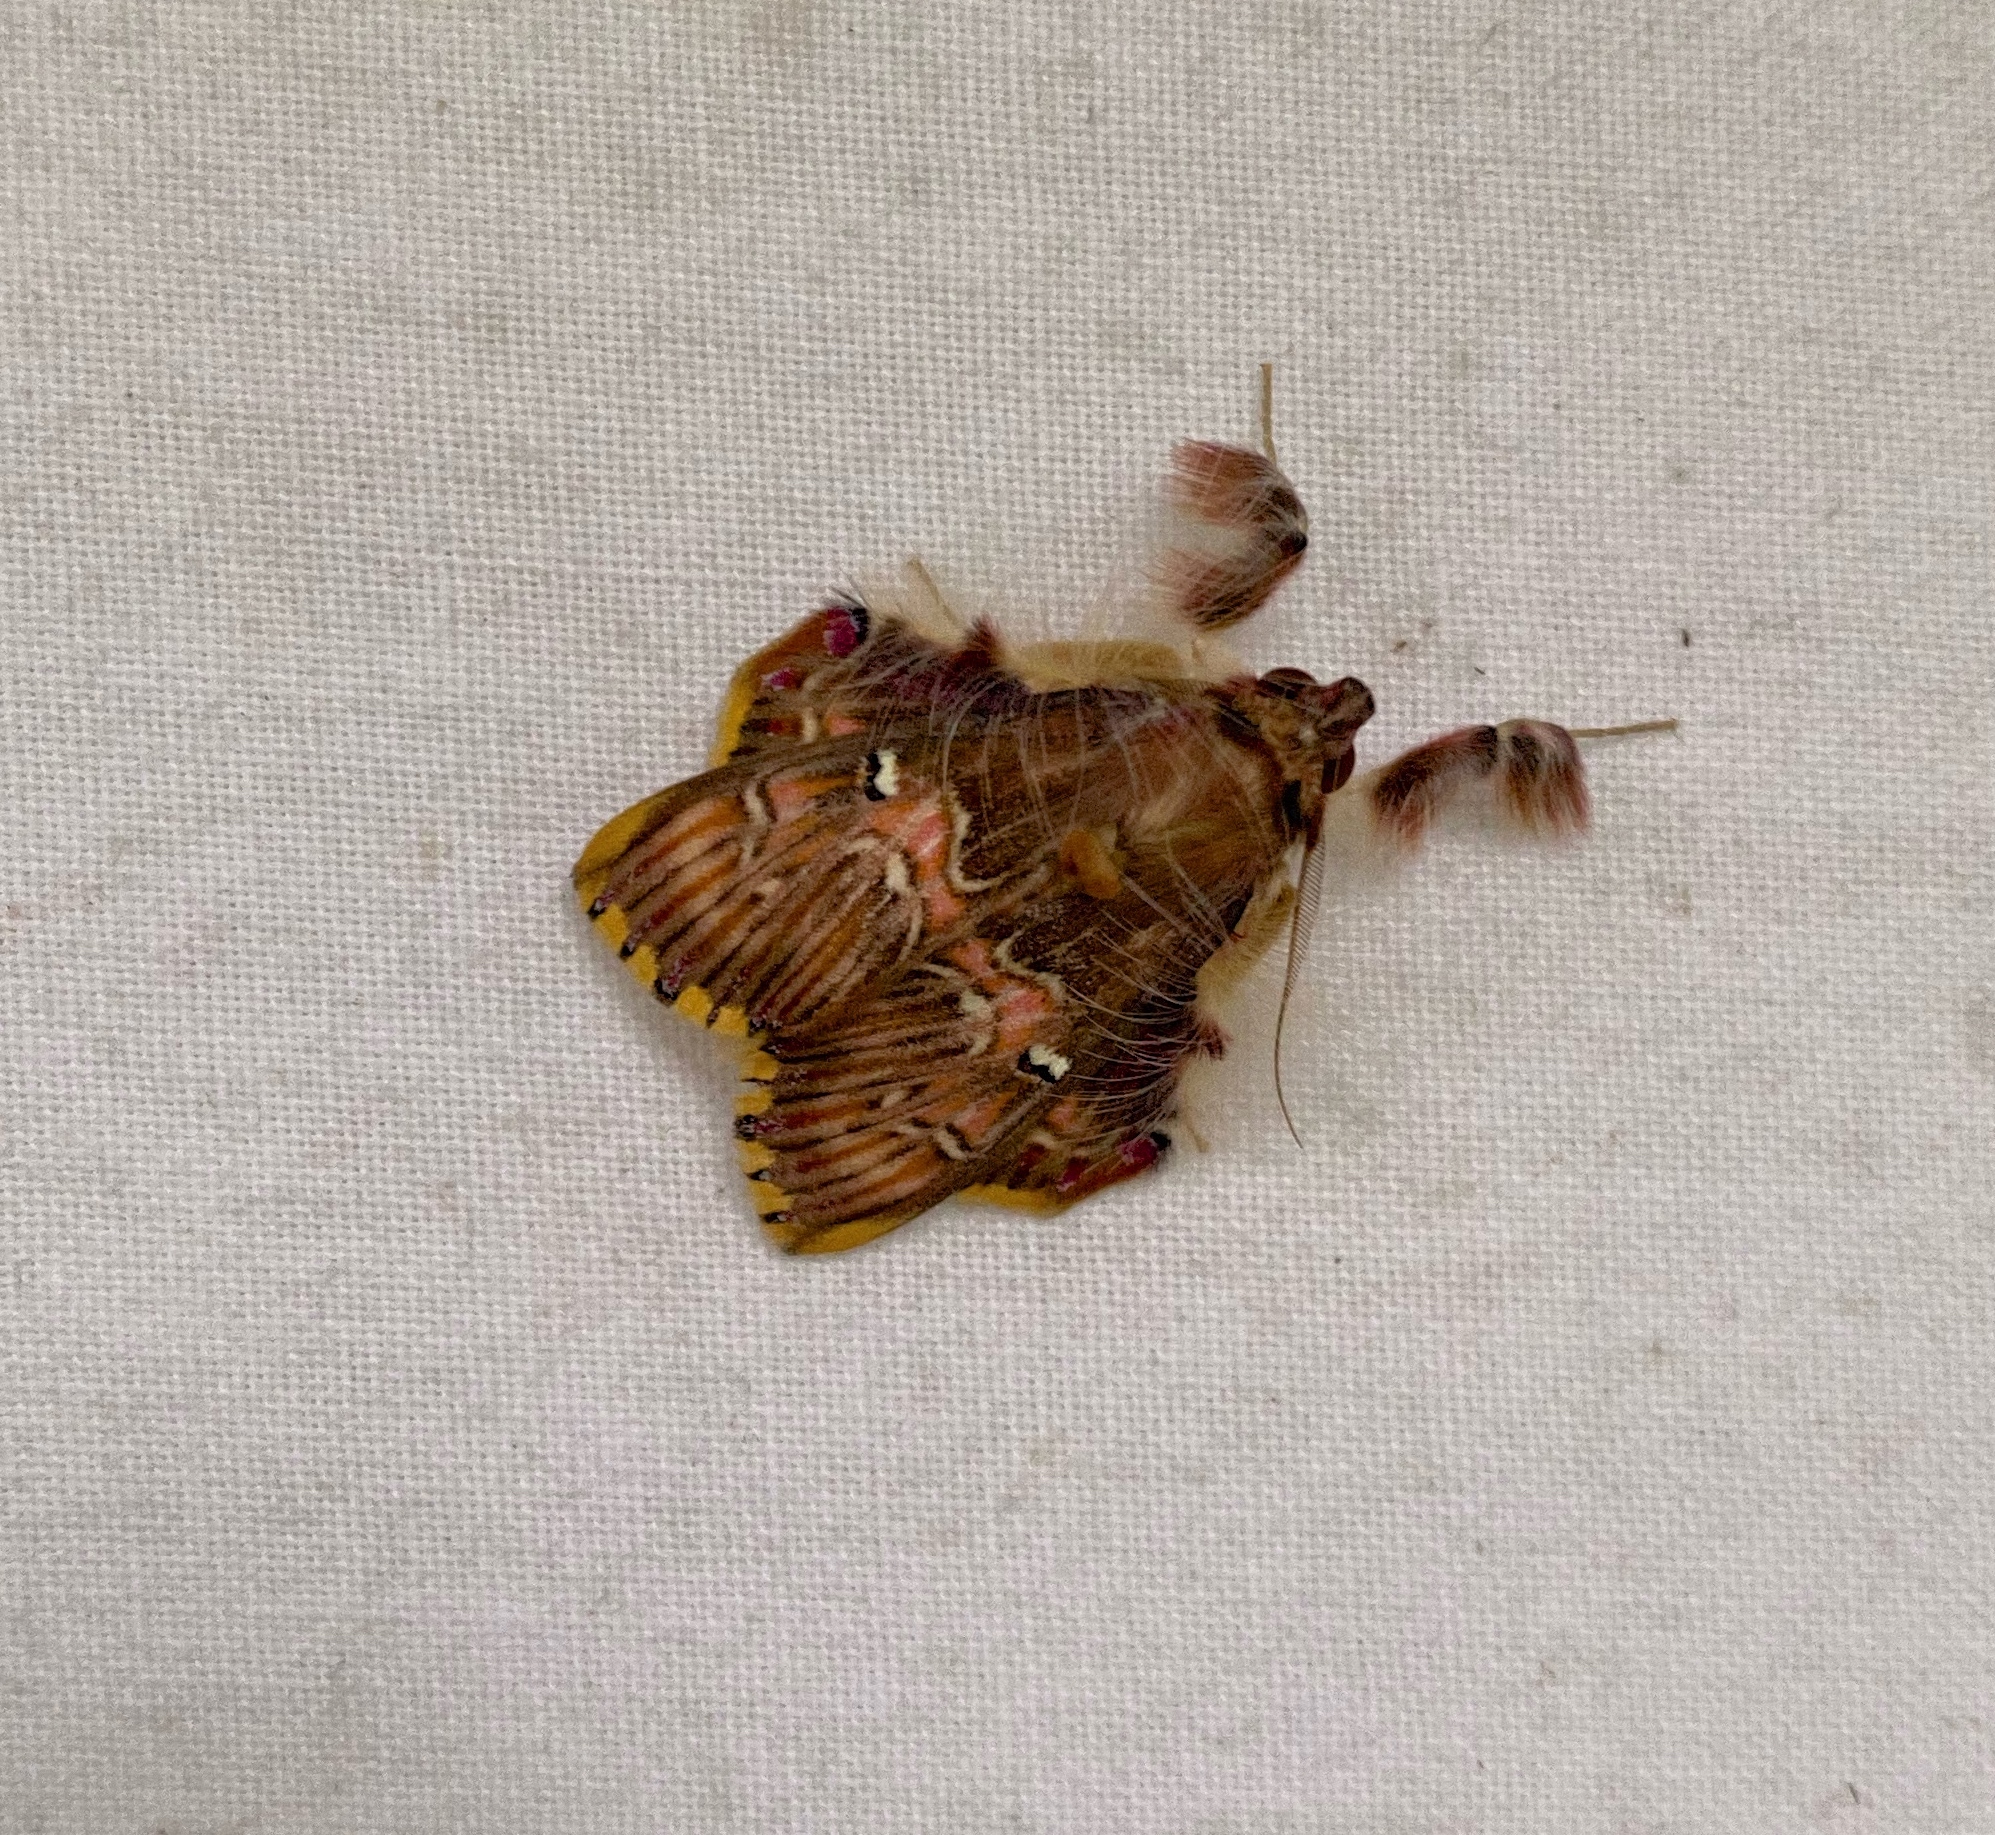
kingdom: Animalia
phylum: Arthropoda
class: Insecta
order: Lepidoptera
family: Erebidae
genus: Sosxetra
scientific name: Sosxetra grata
